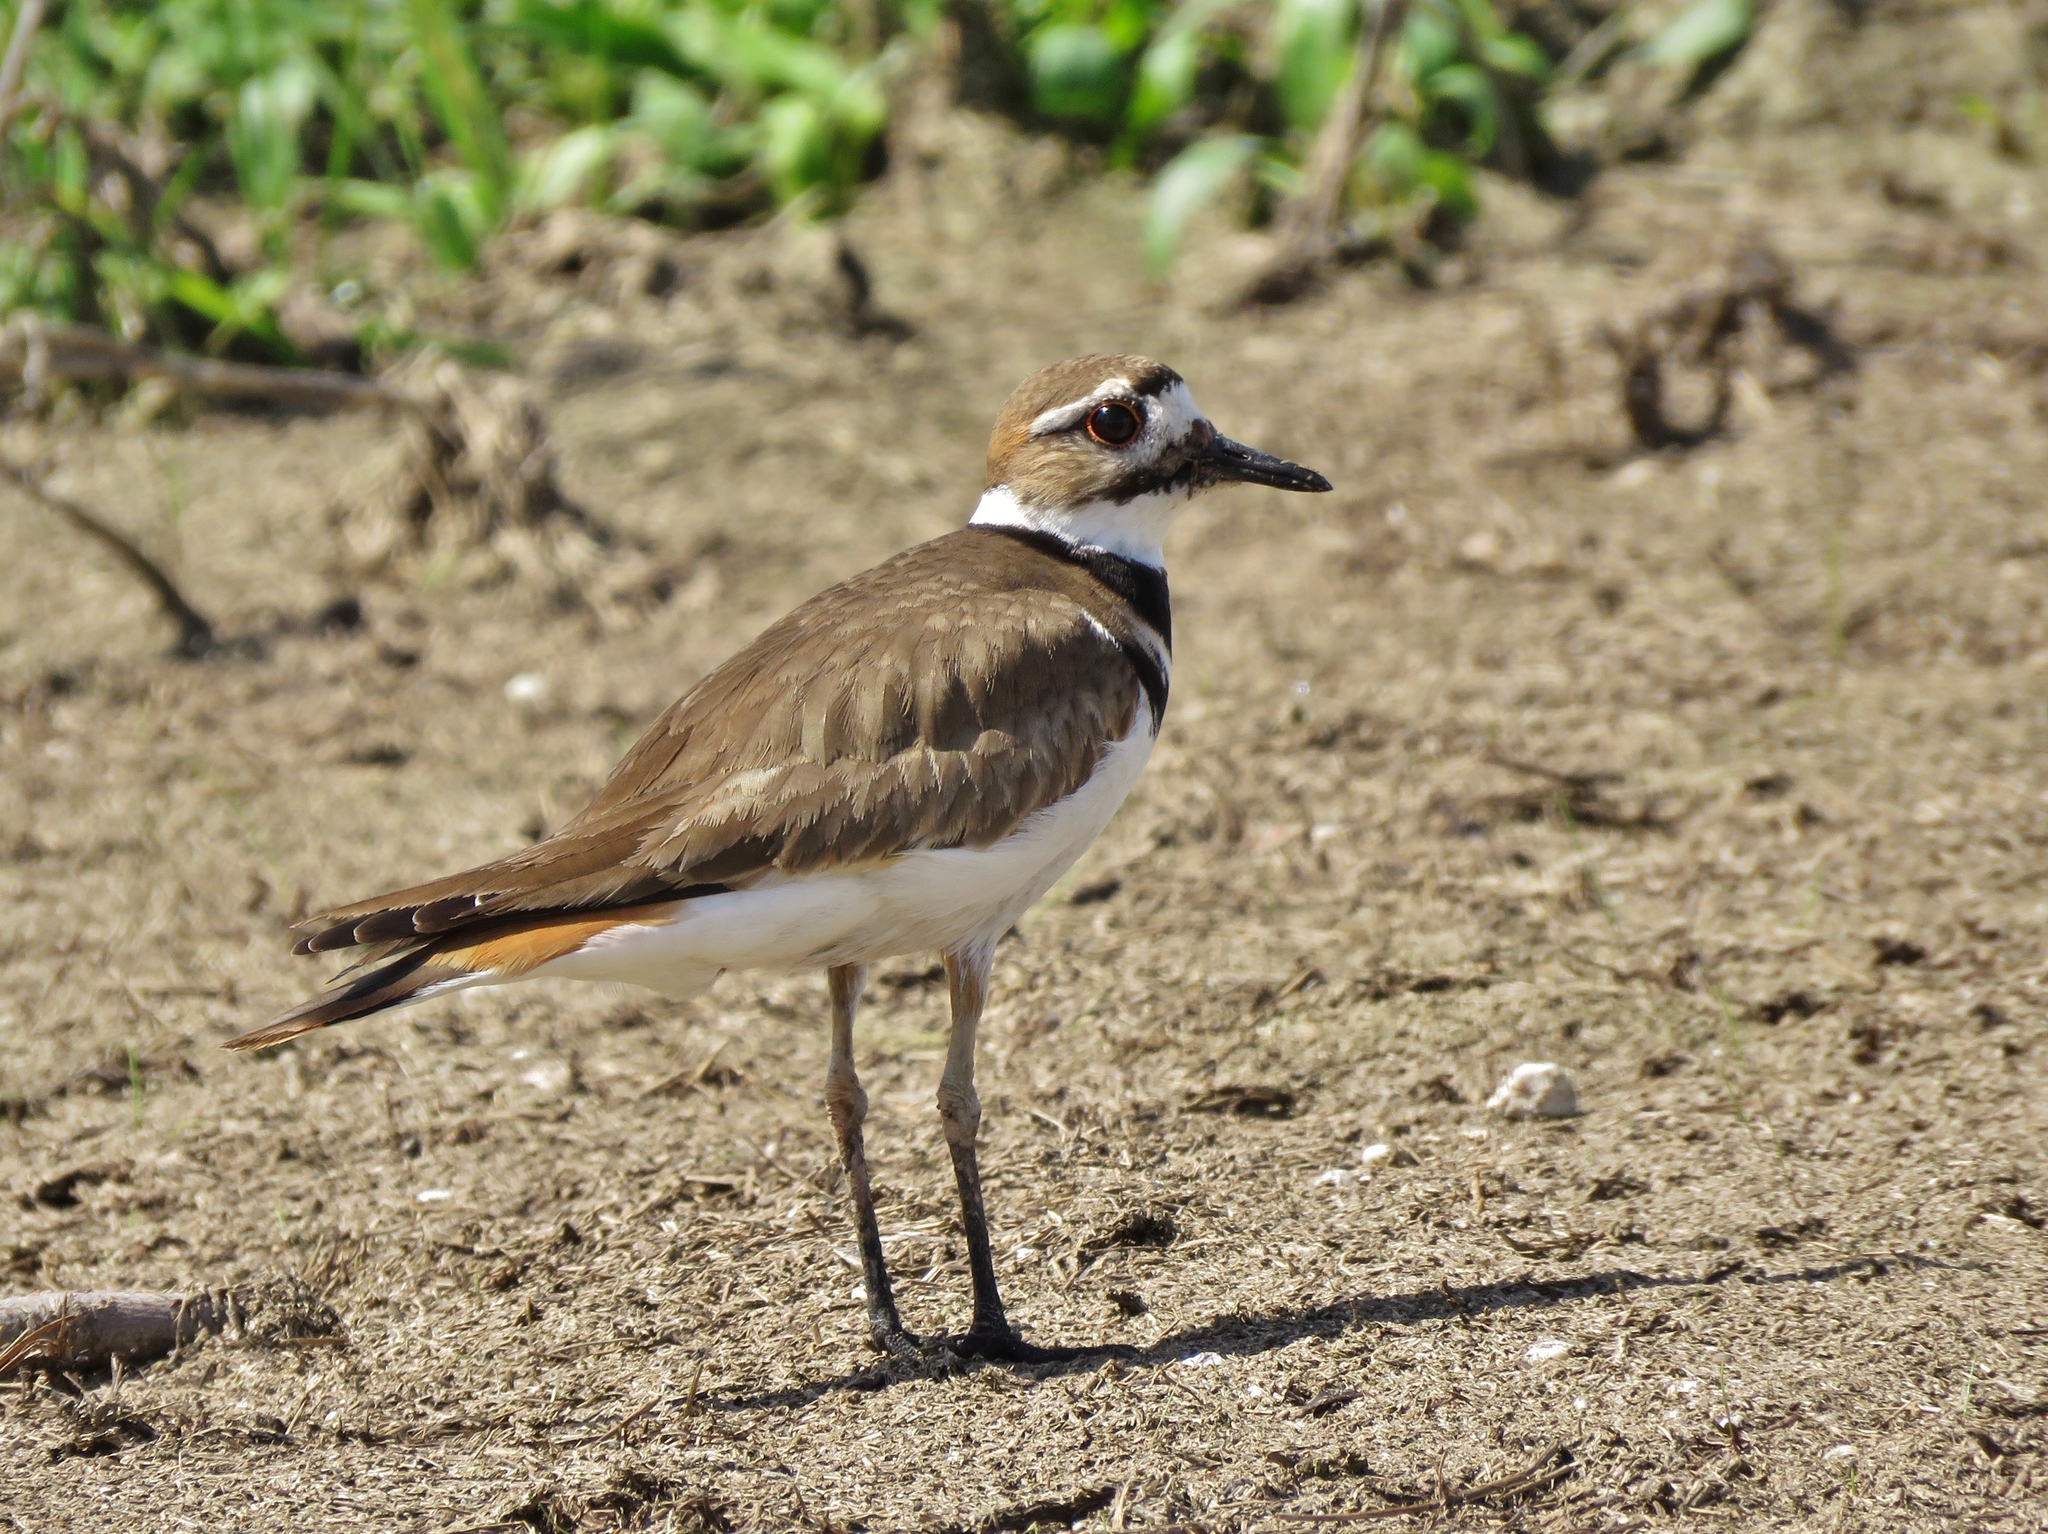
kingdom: Animalia
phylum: Chordata
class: Aves
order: Charadriiformes
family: Charadriidae
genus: Charadrius
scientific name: Charadrius vociferus
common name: Killdeer
